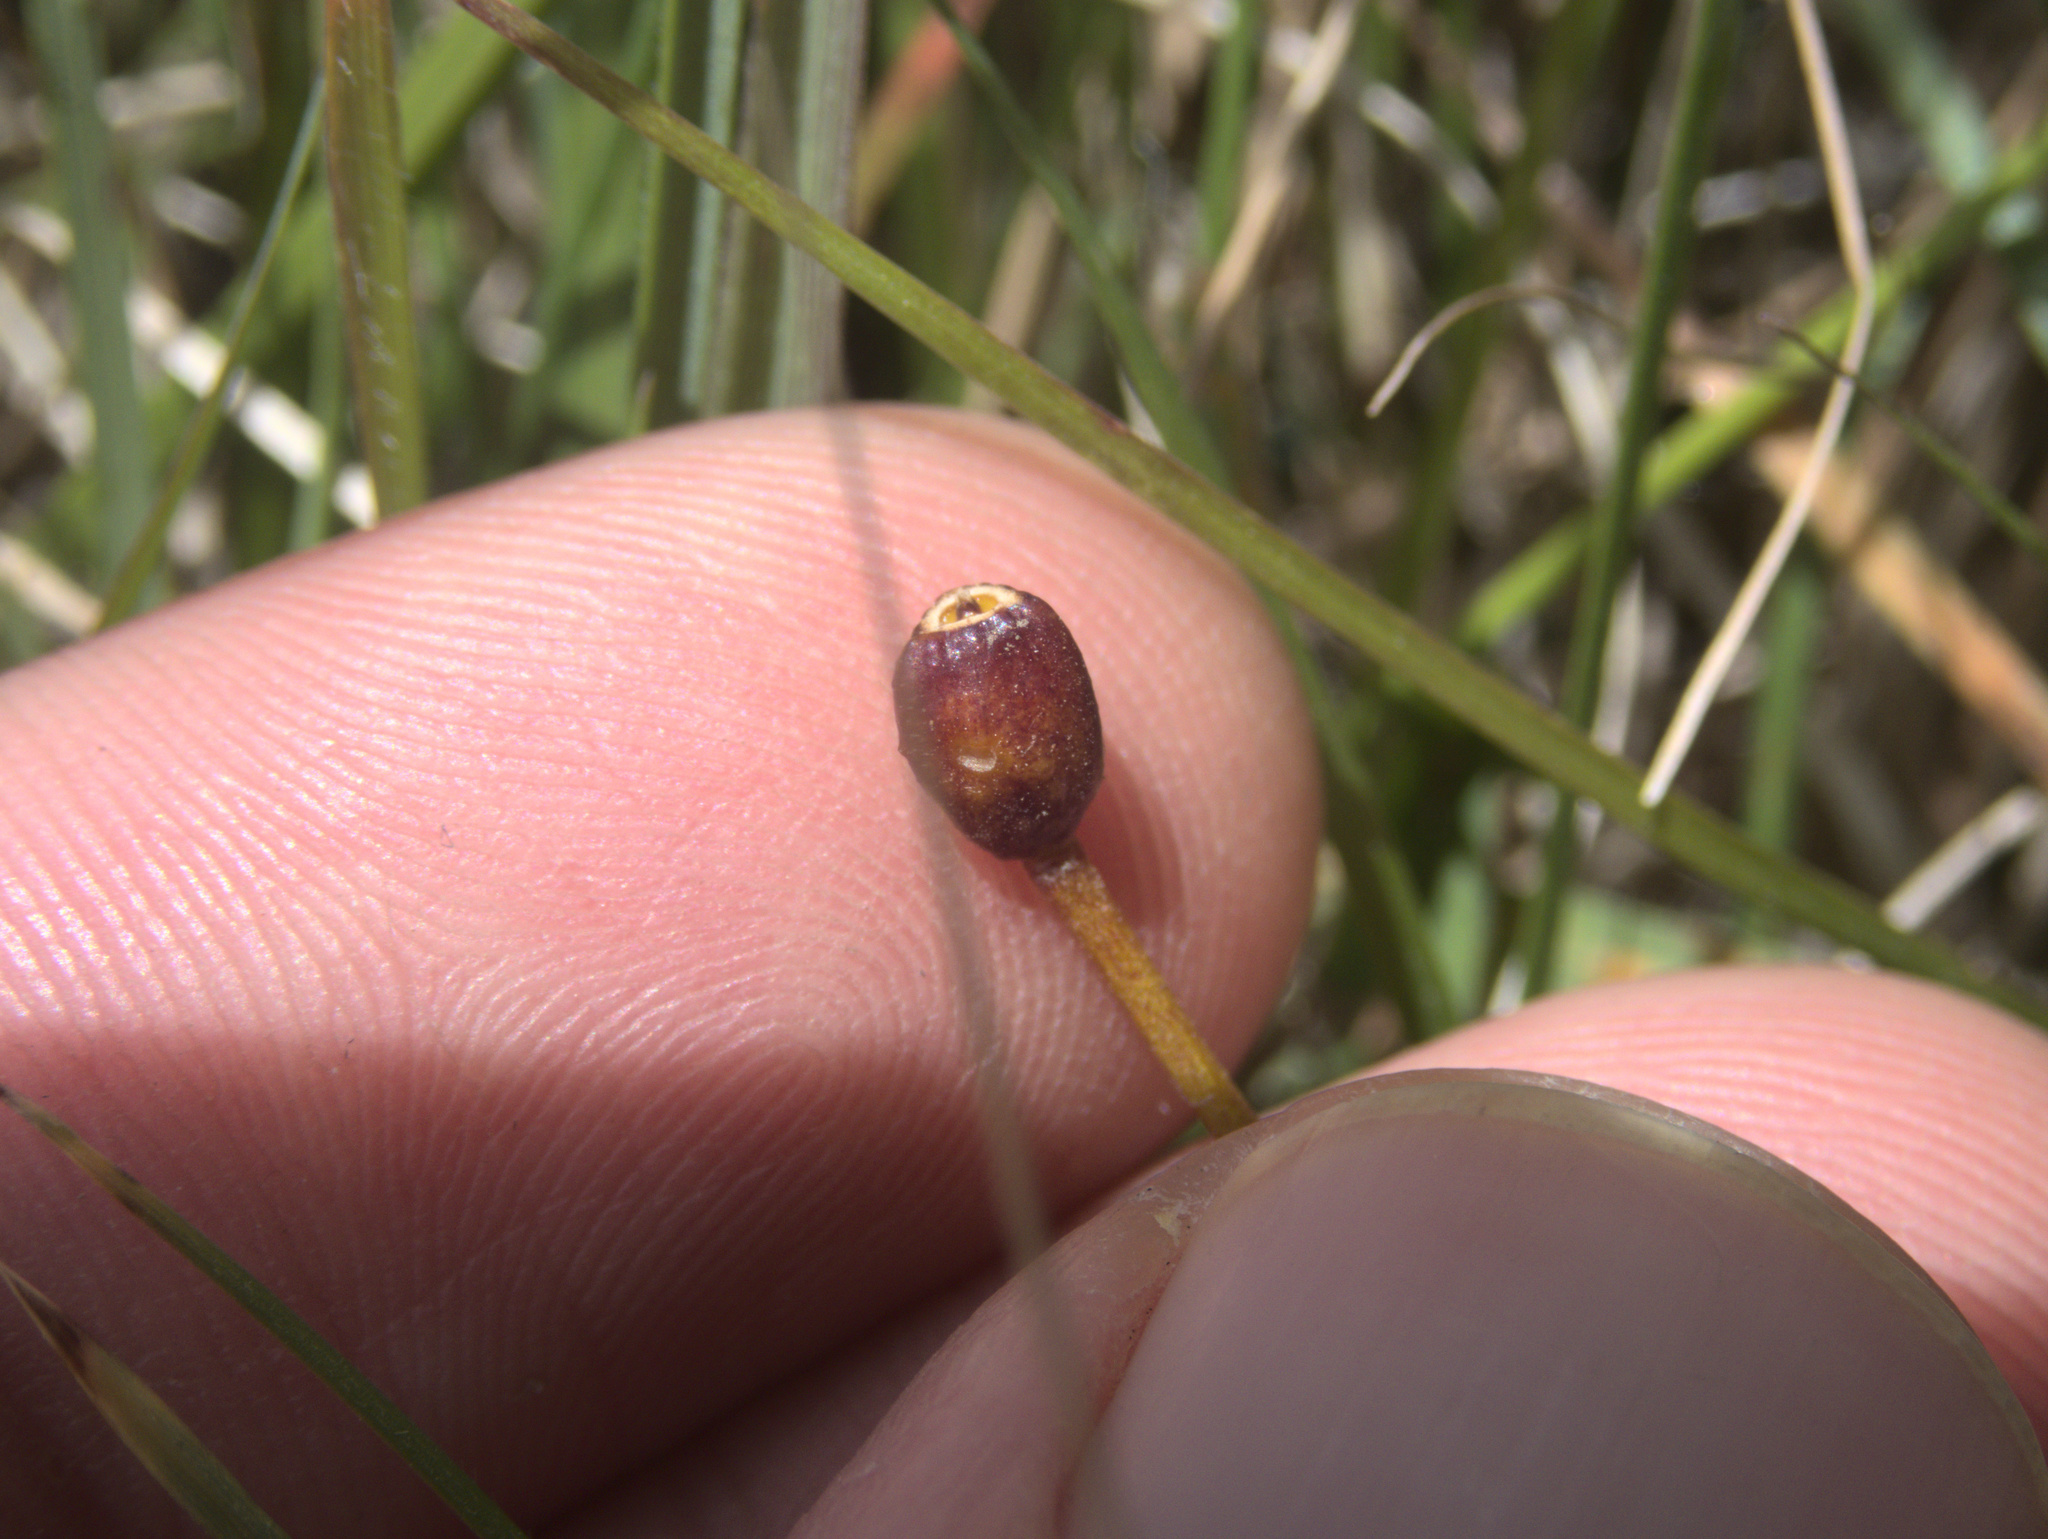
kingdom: Plantae
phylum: Tracheophyta
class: Liliopsida
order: Asparagales
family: Iridaceae
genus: Libertia
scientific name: Libertia peregrinans
